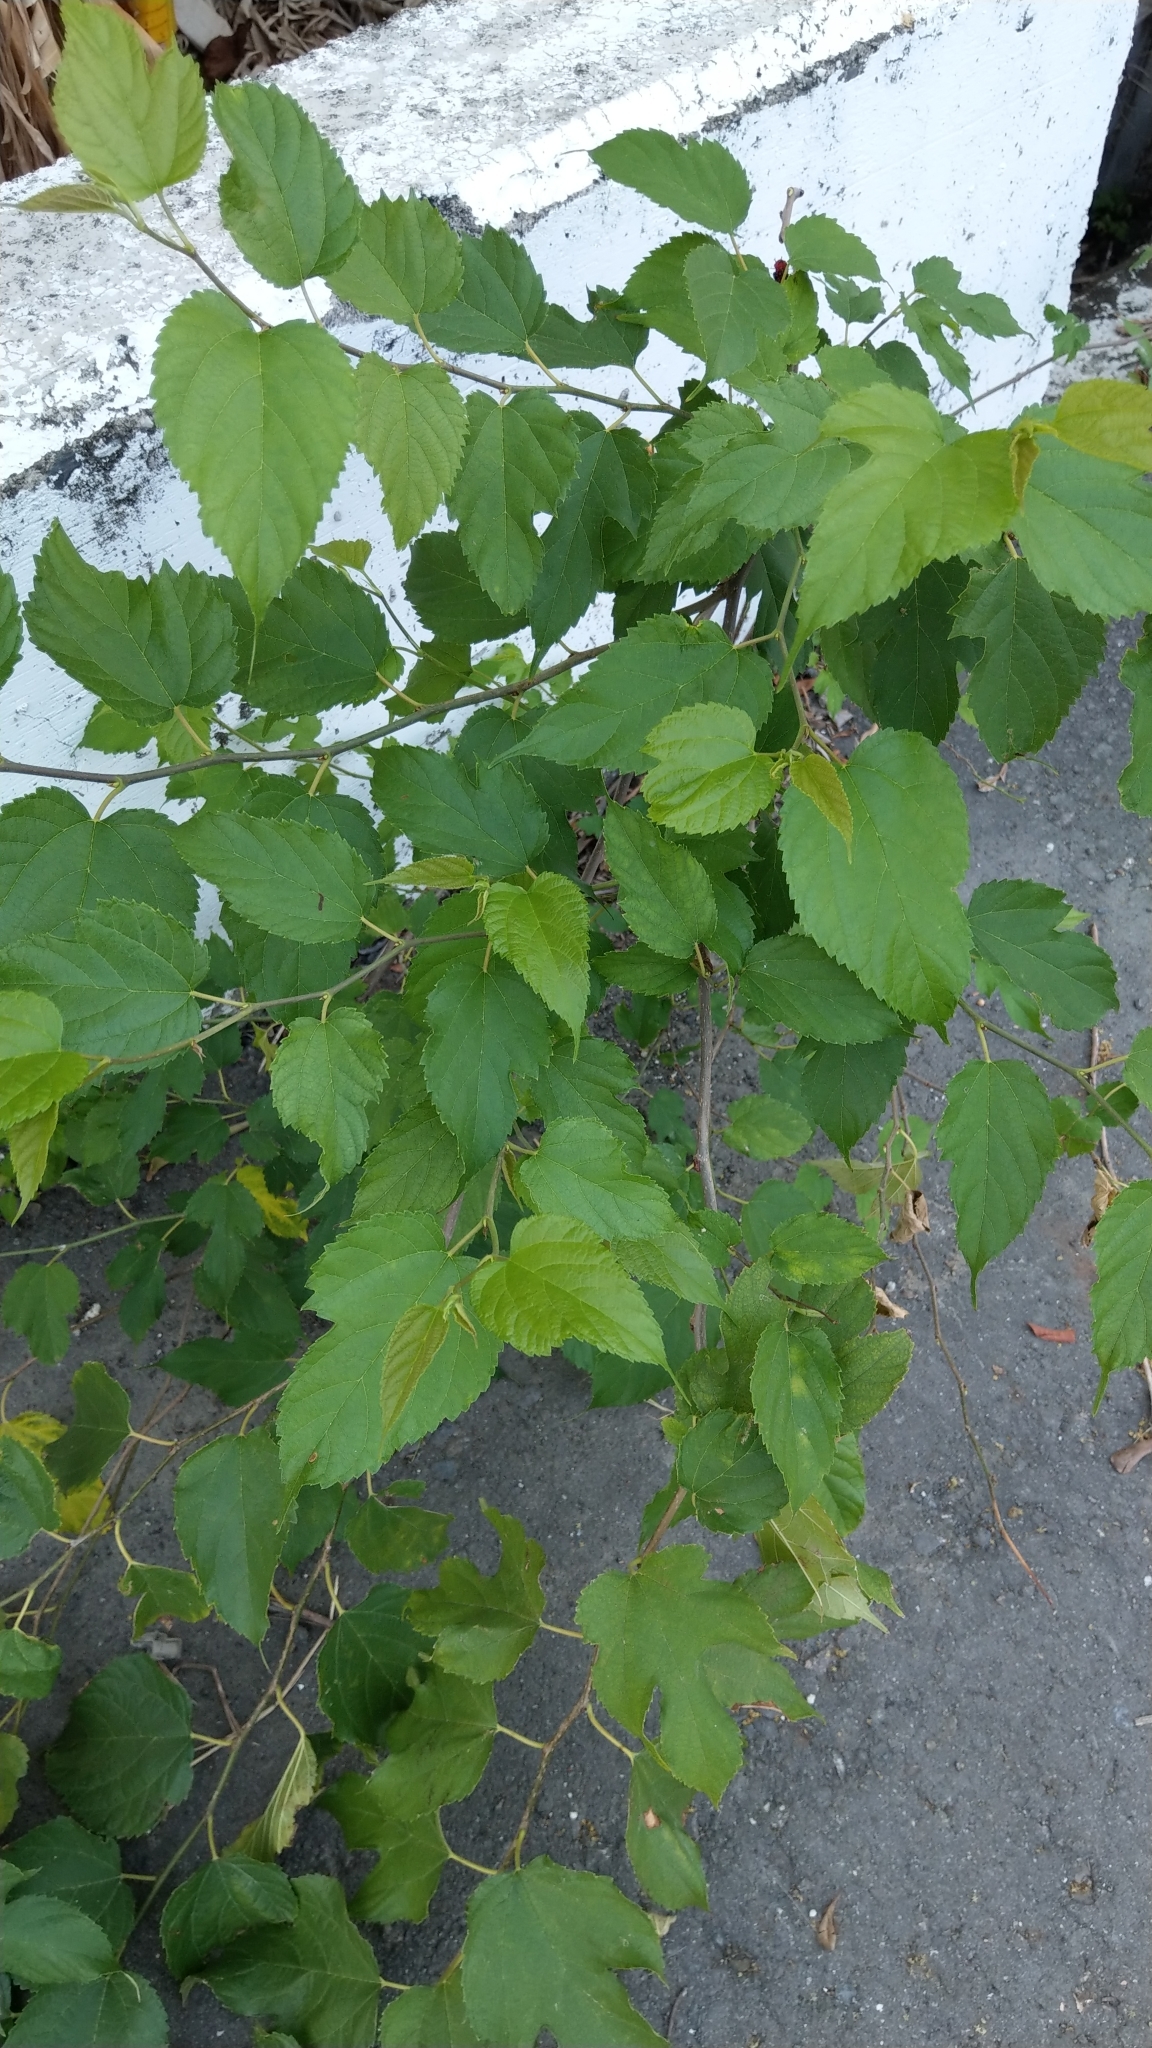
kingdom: Plantae
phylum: Tracheophyta
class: Magnoliopsida
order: Rosales
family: Moraceae
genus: Morus
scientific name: Morus indica
